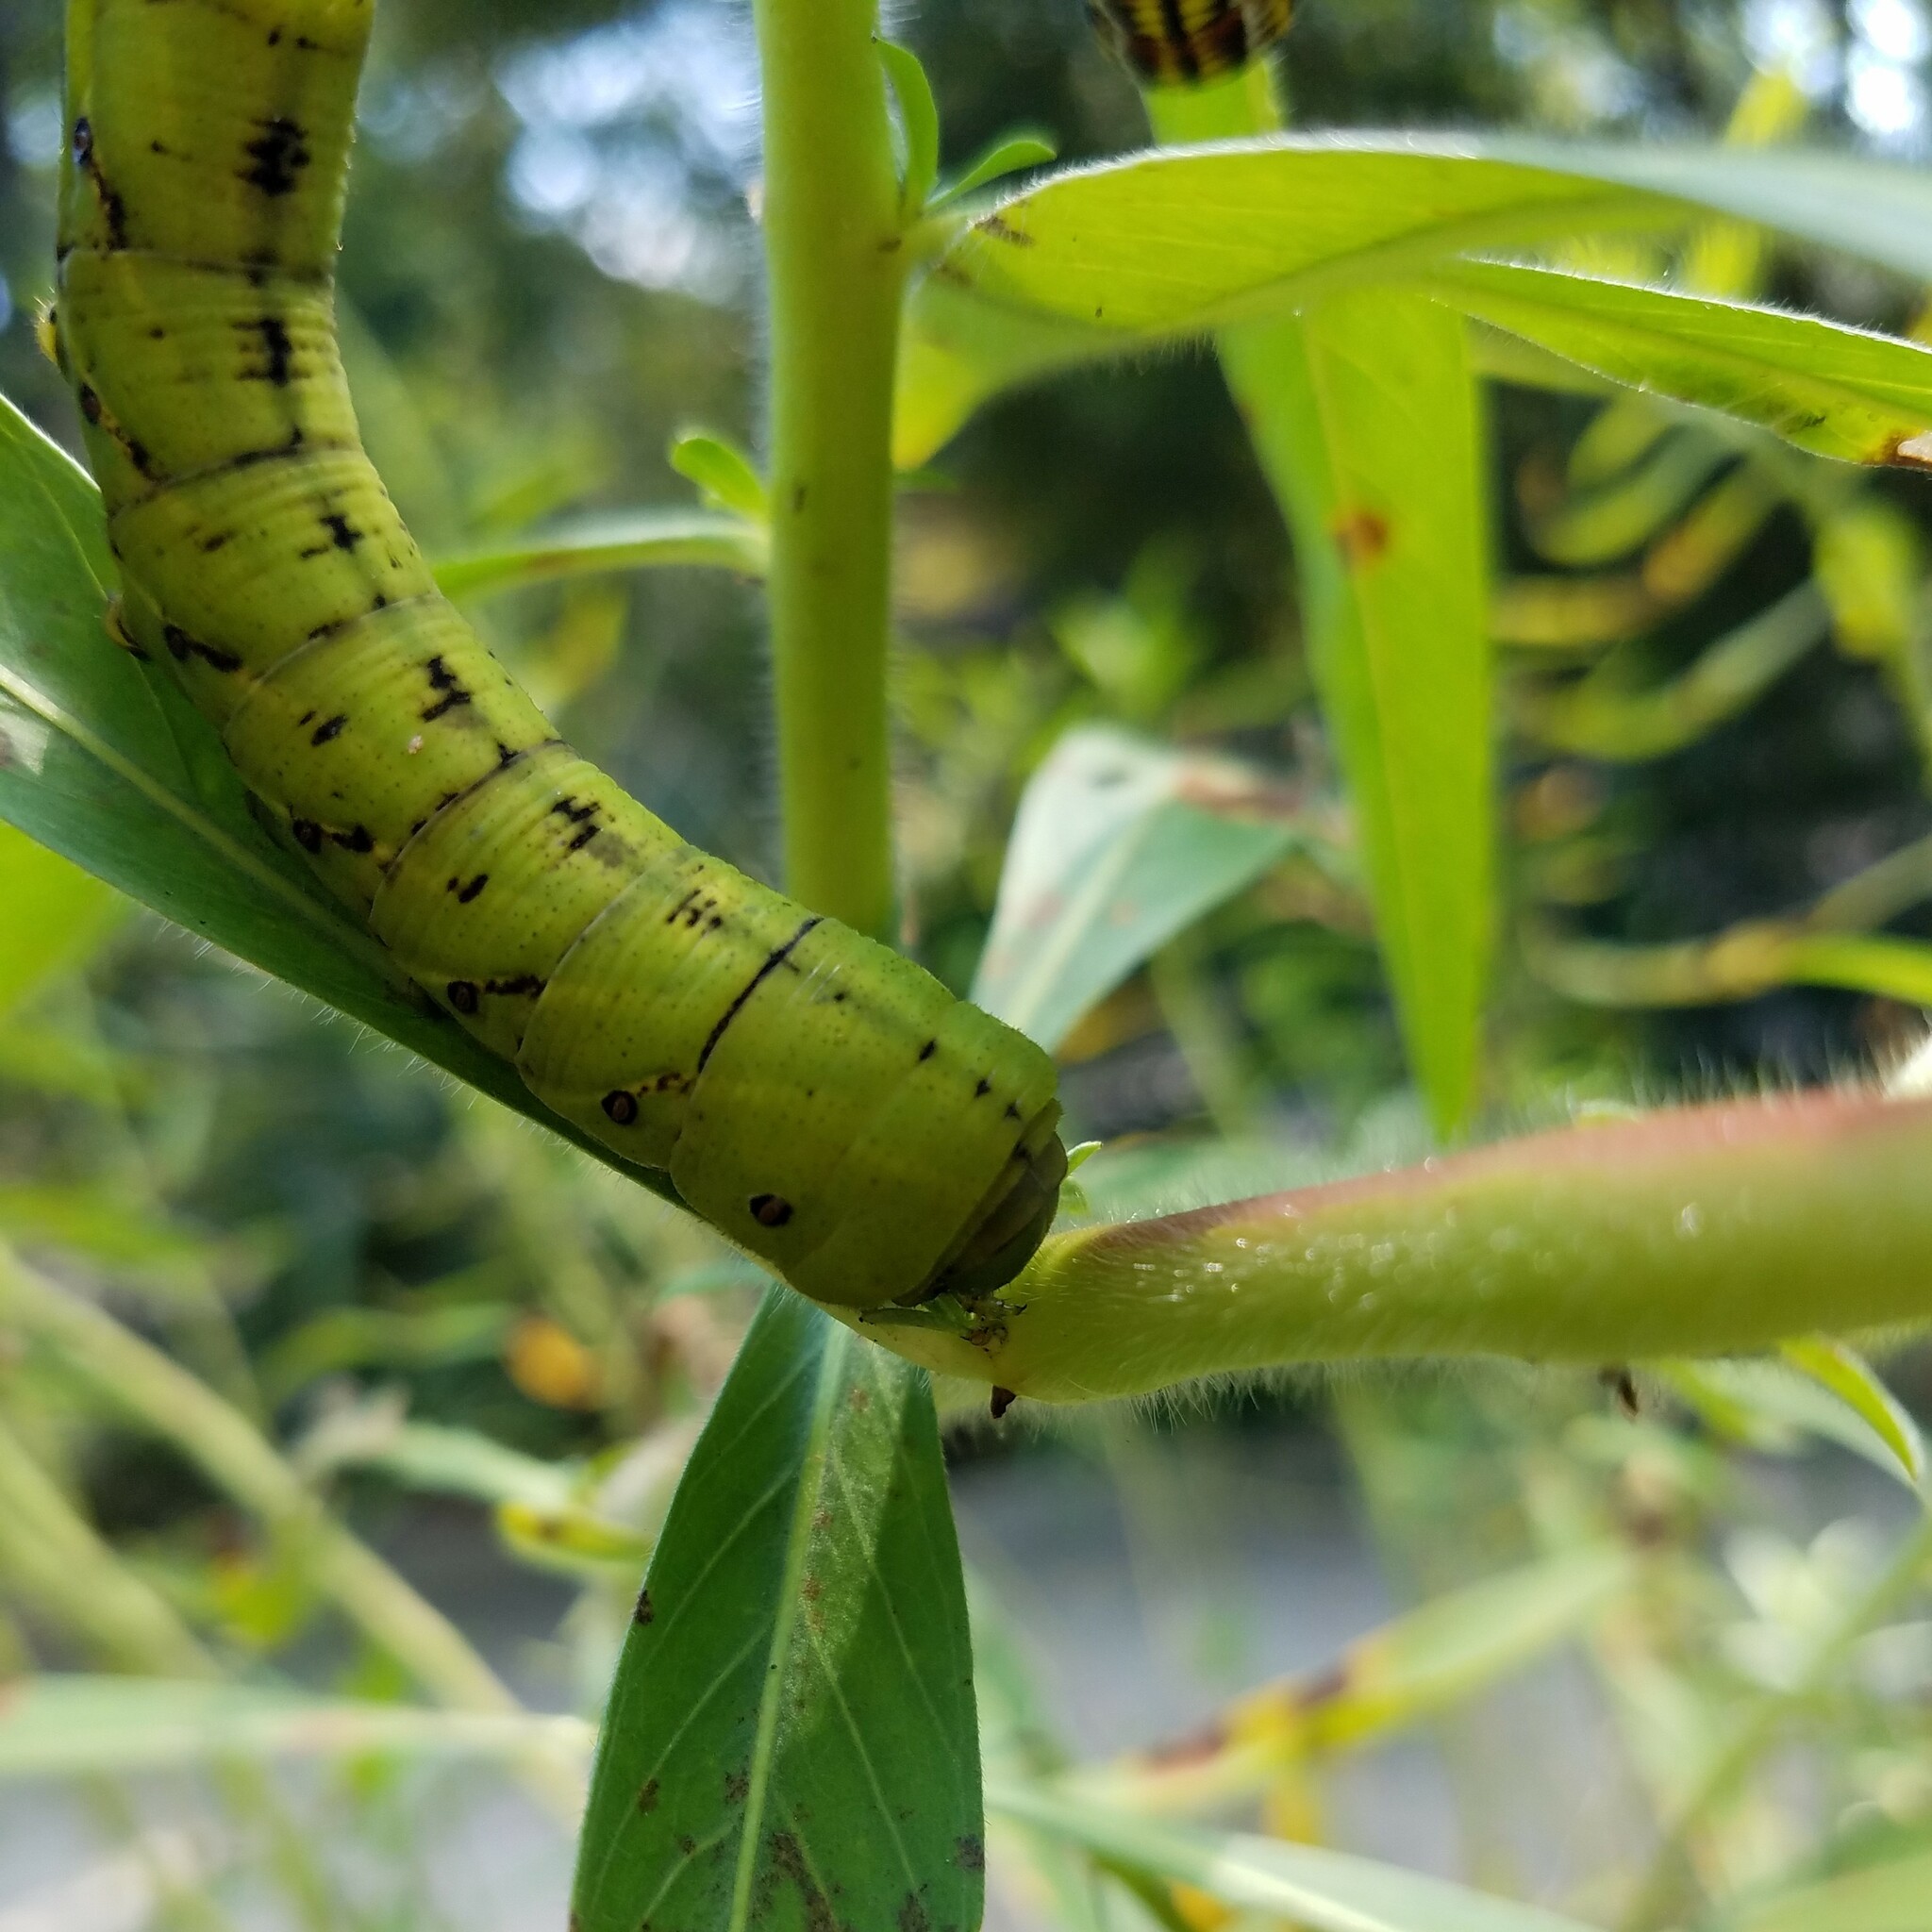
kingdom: Animalia
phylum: Arthropoda
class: Insecta
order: Lepidoptera
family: Sphingidae
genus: Eumorpha
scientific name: Eumorpha fasciatus
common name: Banded sphinx
